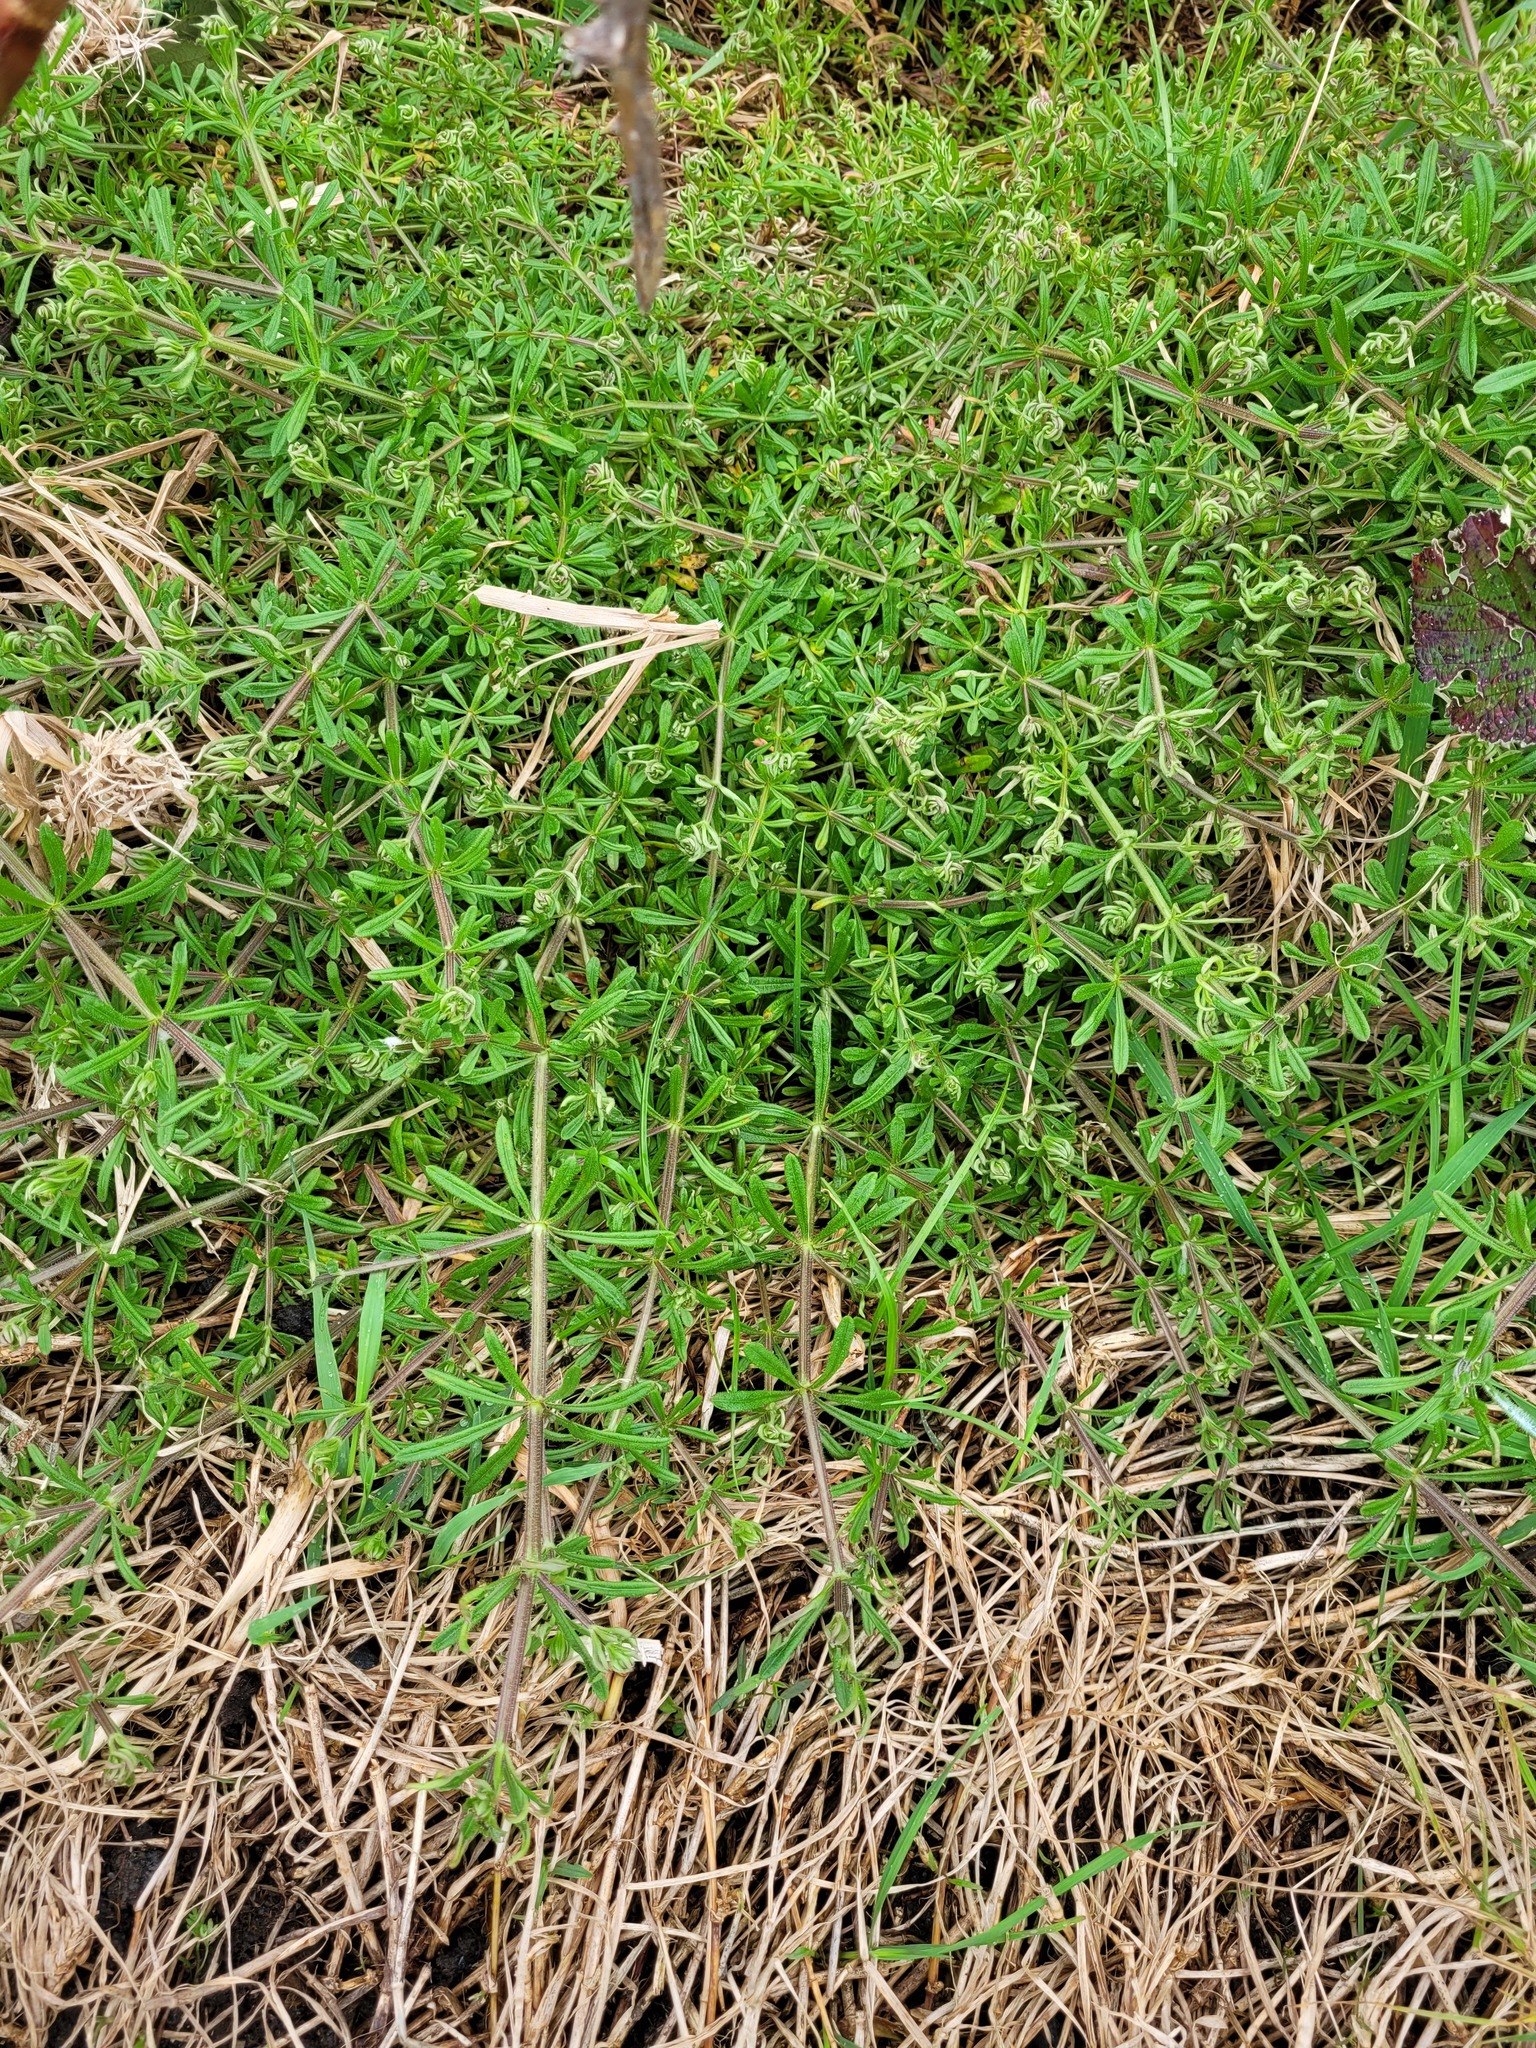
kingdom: Plantae
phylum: Tracheophyta
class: Magnoliopsida
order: Gentianales
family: Rubiaceae
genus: Galium
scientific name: Galium aparine
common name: Cleavers
